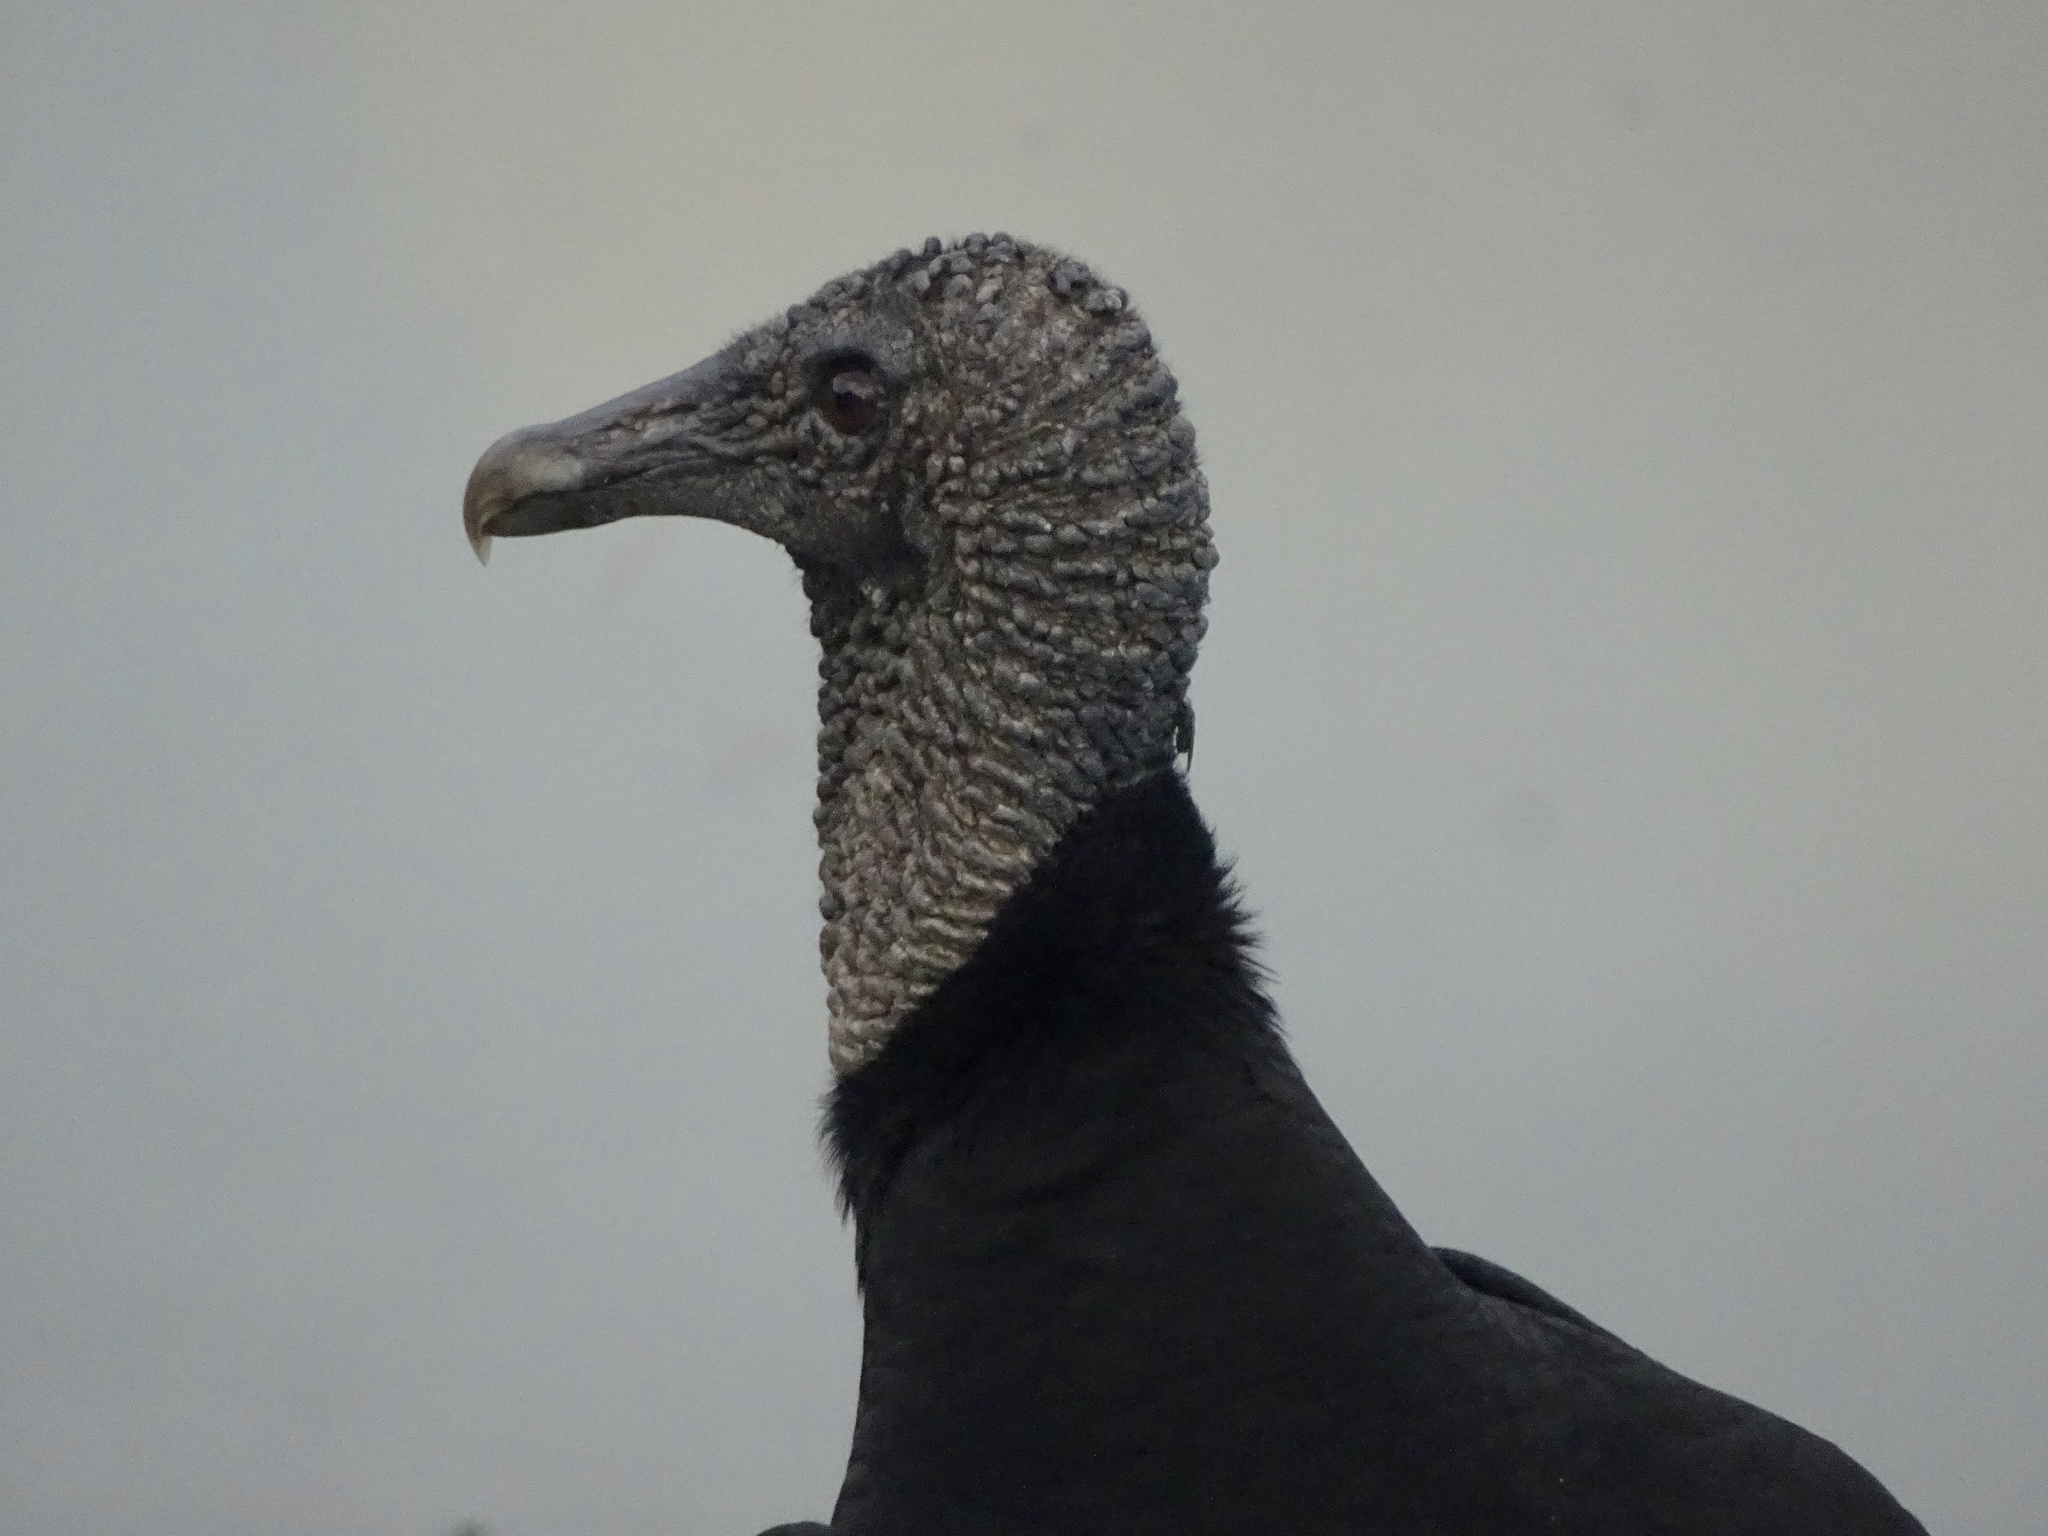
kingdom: Animalia
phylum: Chordata
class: Aves
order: Accipitriformes
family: Cathartidae
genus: Coragyps
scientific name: Coragyps atratus
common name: Black vulture
